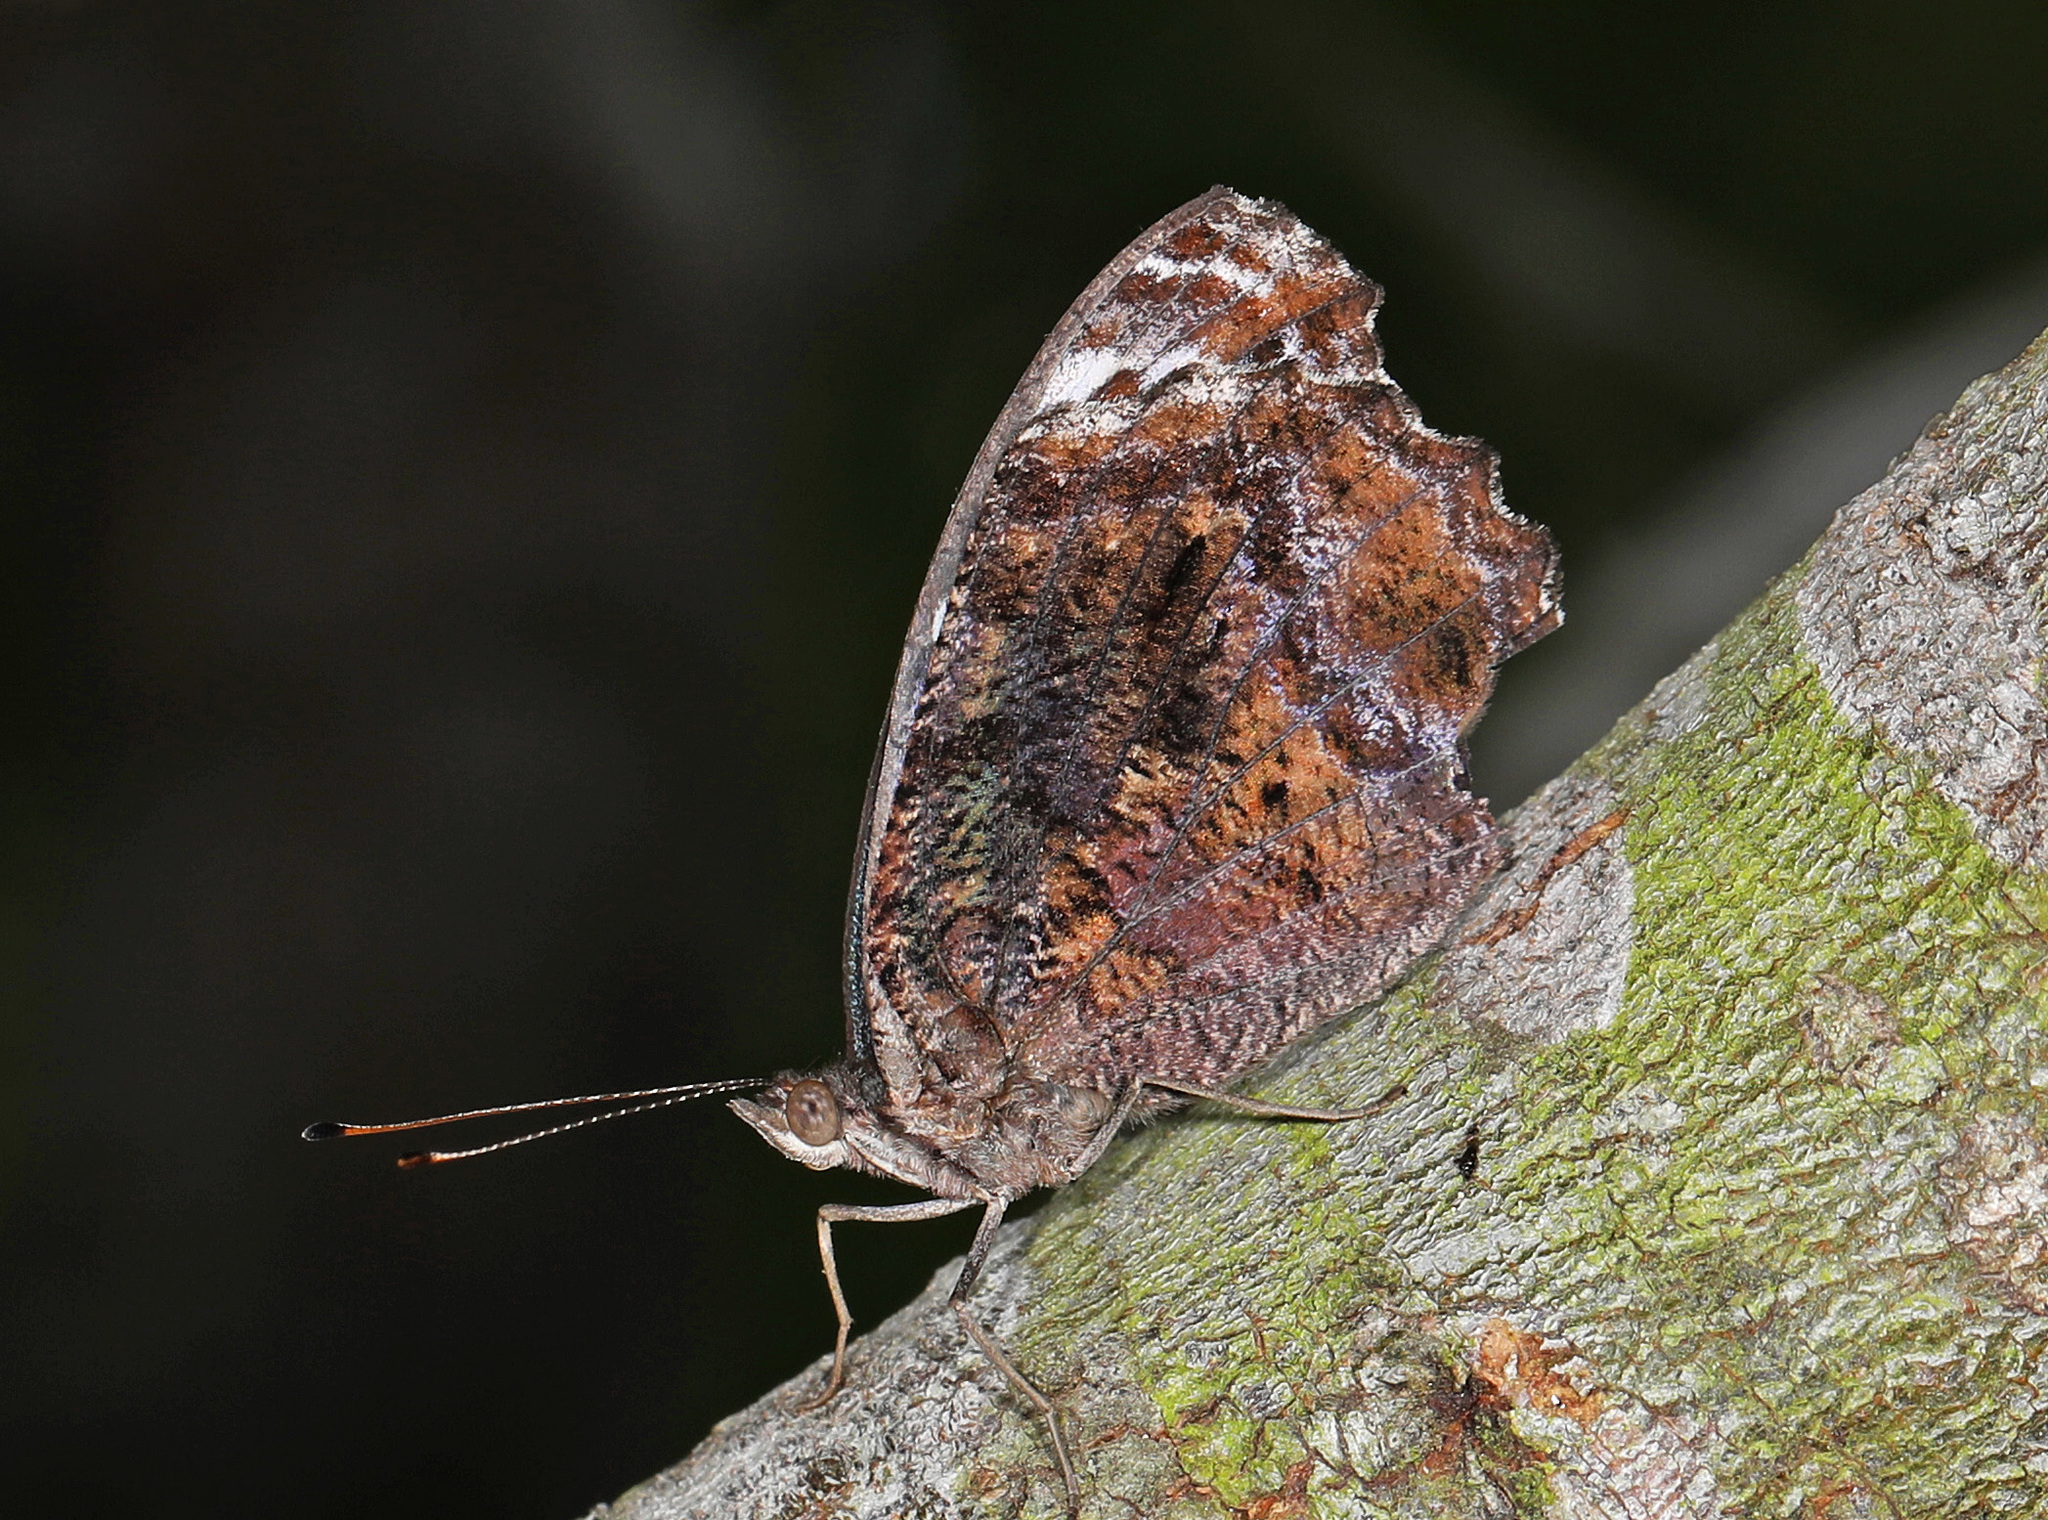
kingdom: Animalia
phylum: Arthropoda
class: Insecta
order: Lepidoptera
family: Nymphalidae
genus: Myscelia
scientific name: Myscelia ethusa
